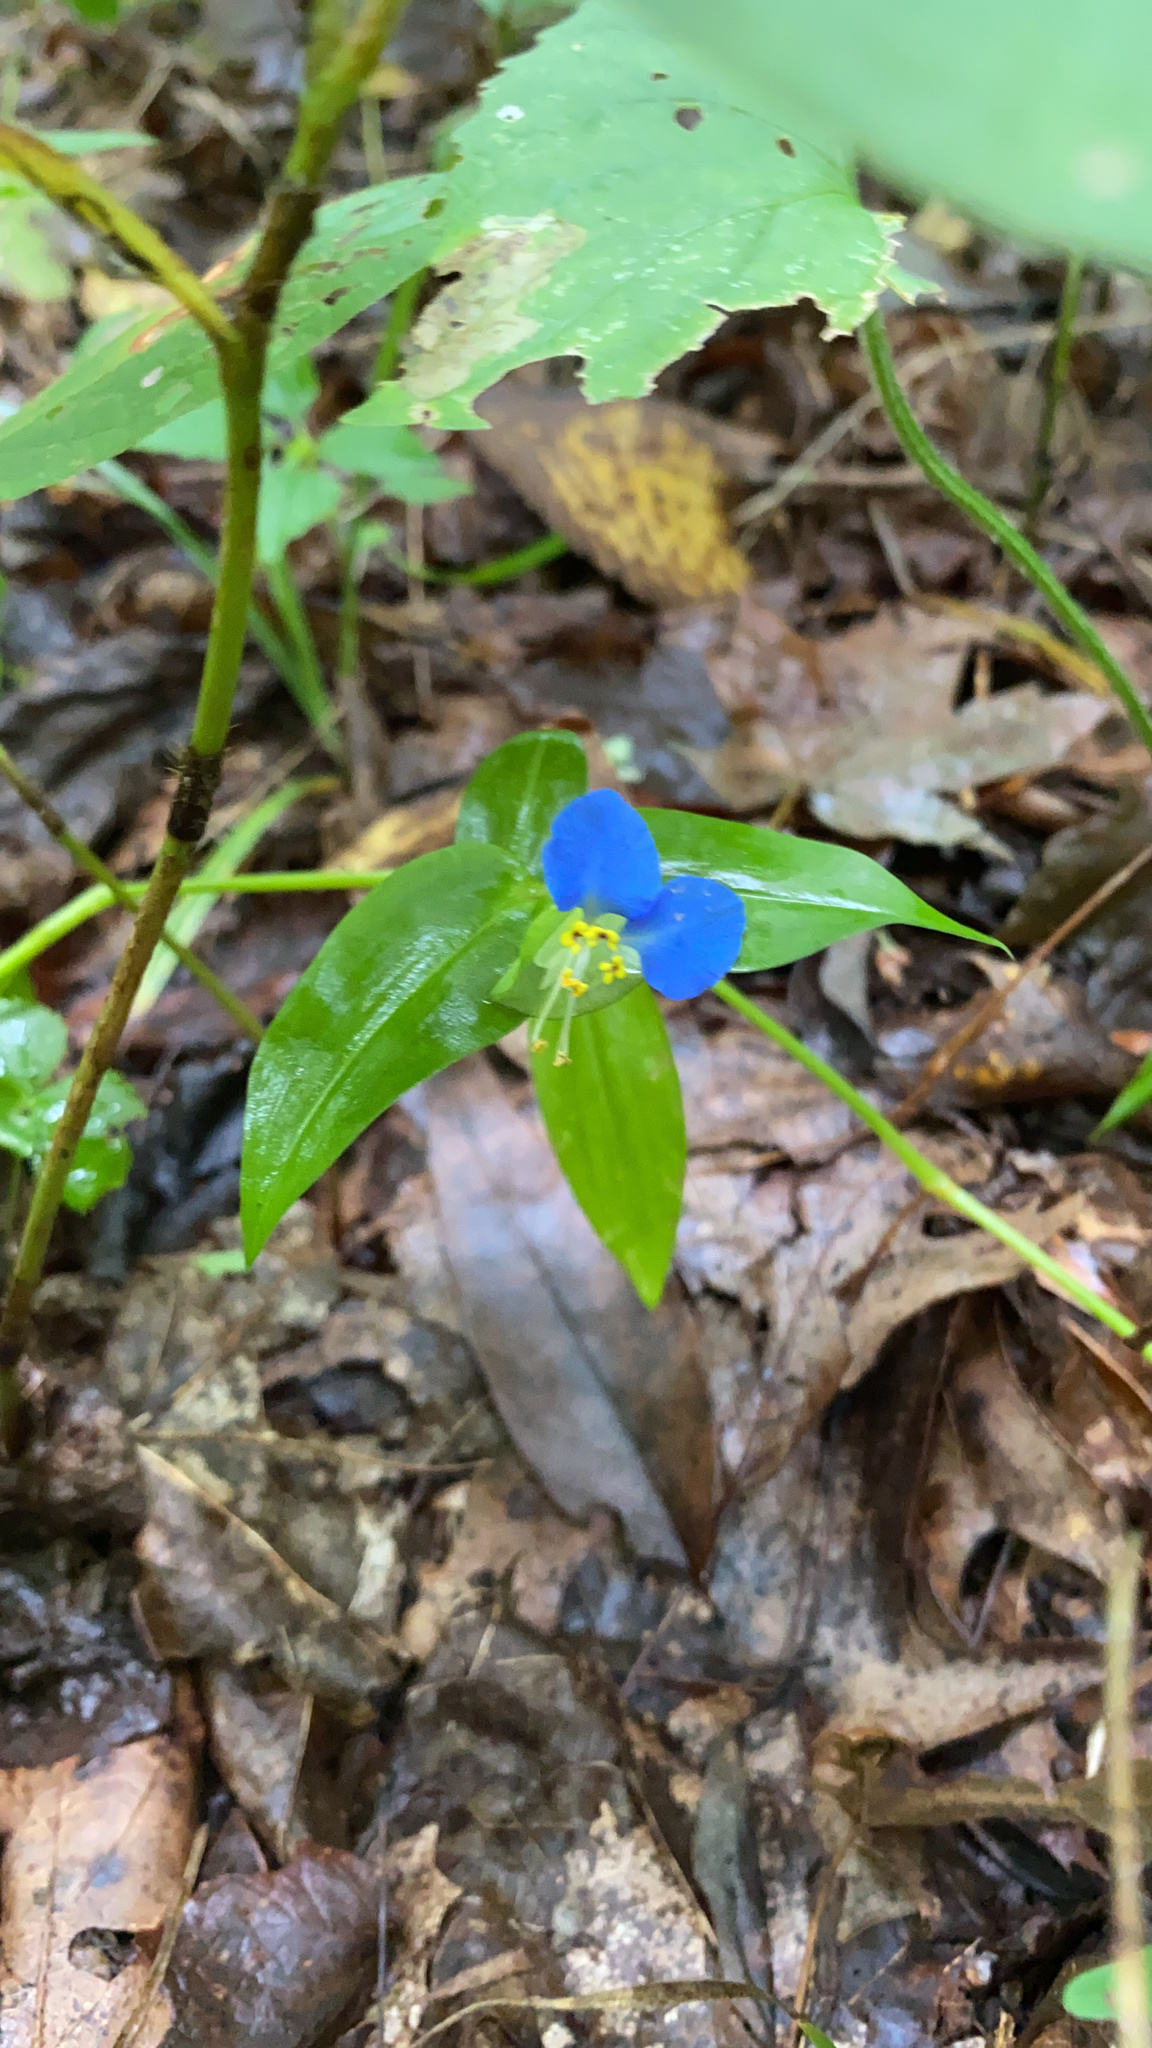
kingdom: Plantae
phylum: Tracheophyta
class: Liliopsida
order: Commelinales
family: Commelinaceae
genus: Commelina
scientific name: Commelina communis
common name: Asiatic dayflower
